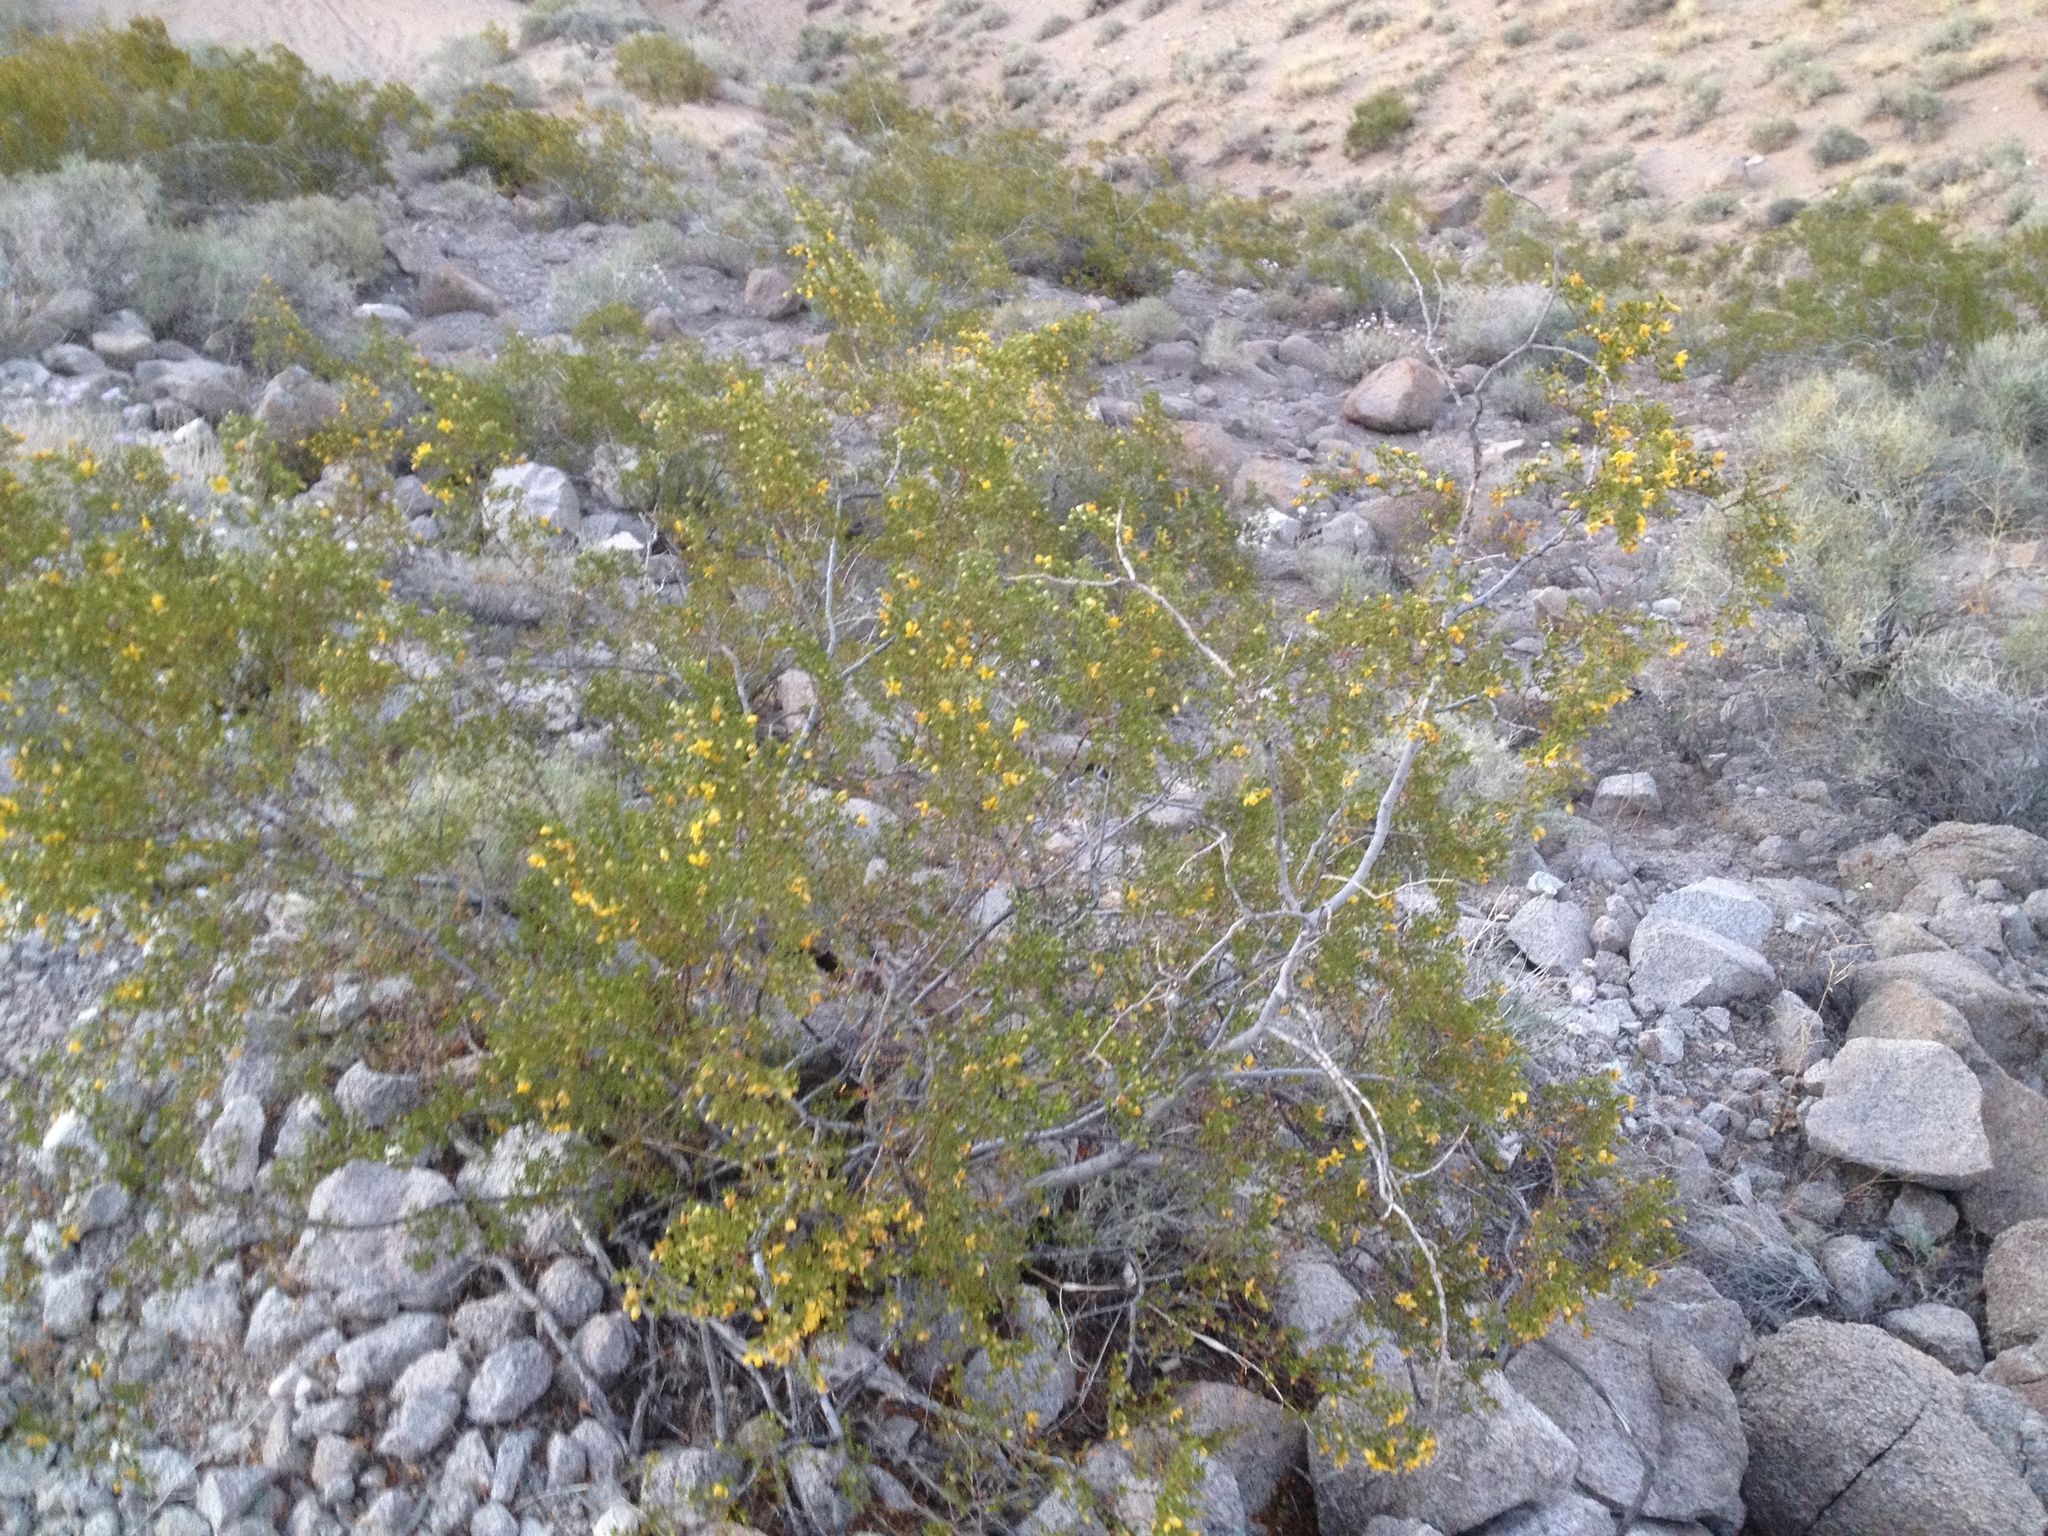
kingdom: Plantae
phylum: Tracheophyta
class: Magnoliopsida
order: Zygophyllales
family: Zygophyllaceae
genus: Larrea
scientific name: Larrea tridentata
